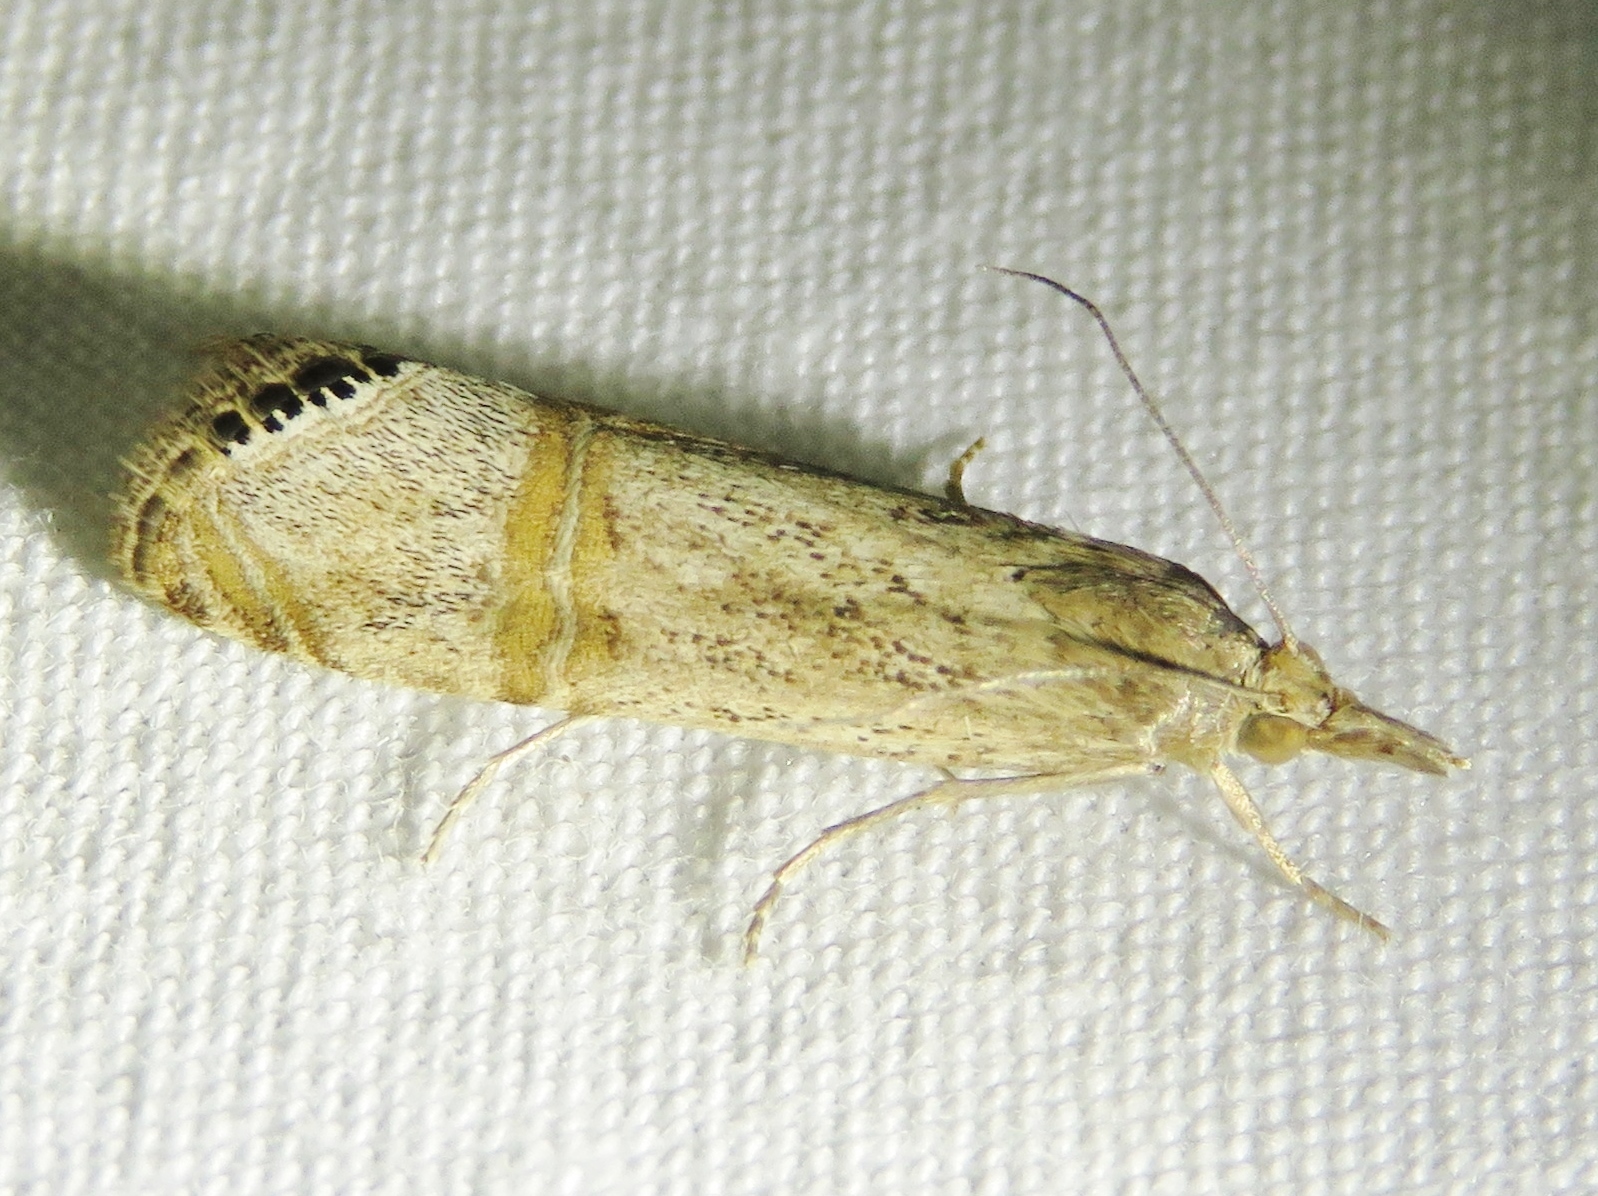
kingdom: Animalia
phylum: Arthropoda
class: Insecta
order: Lepidoptera
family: Crambidae
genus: Euchromius
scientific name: Euchromius ocellea
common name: Necklace veneer moth
